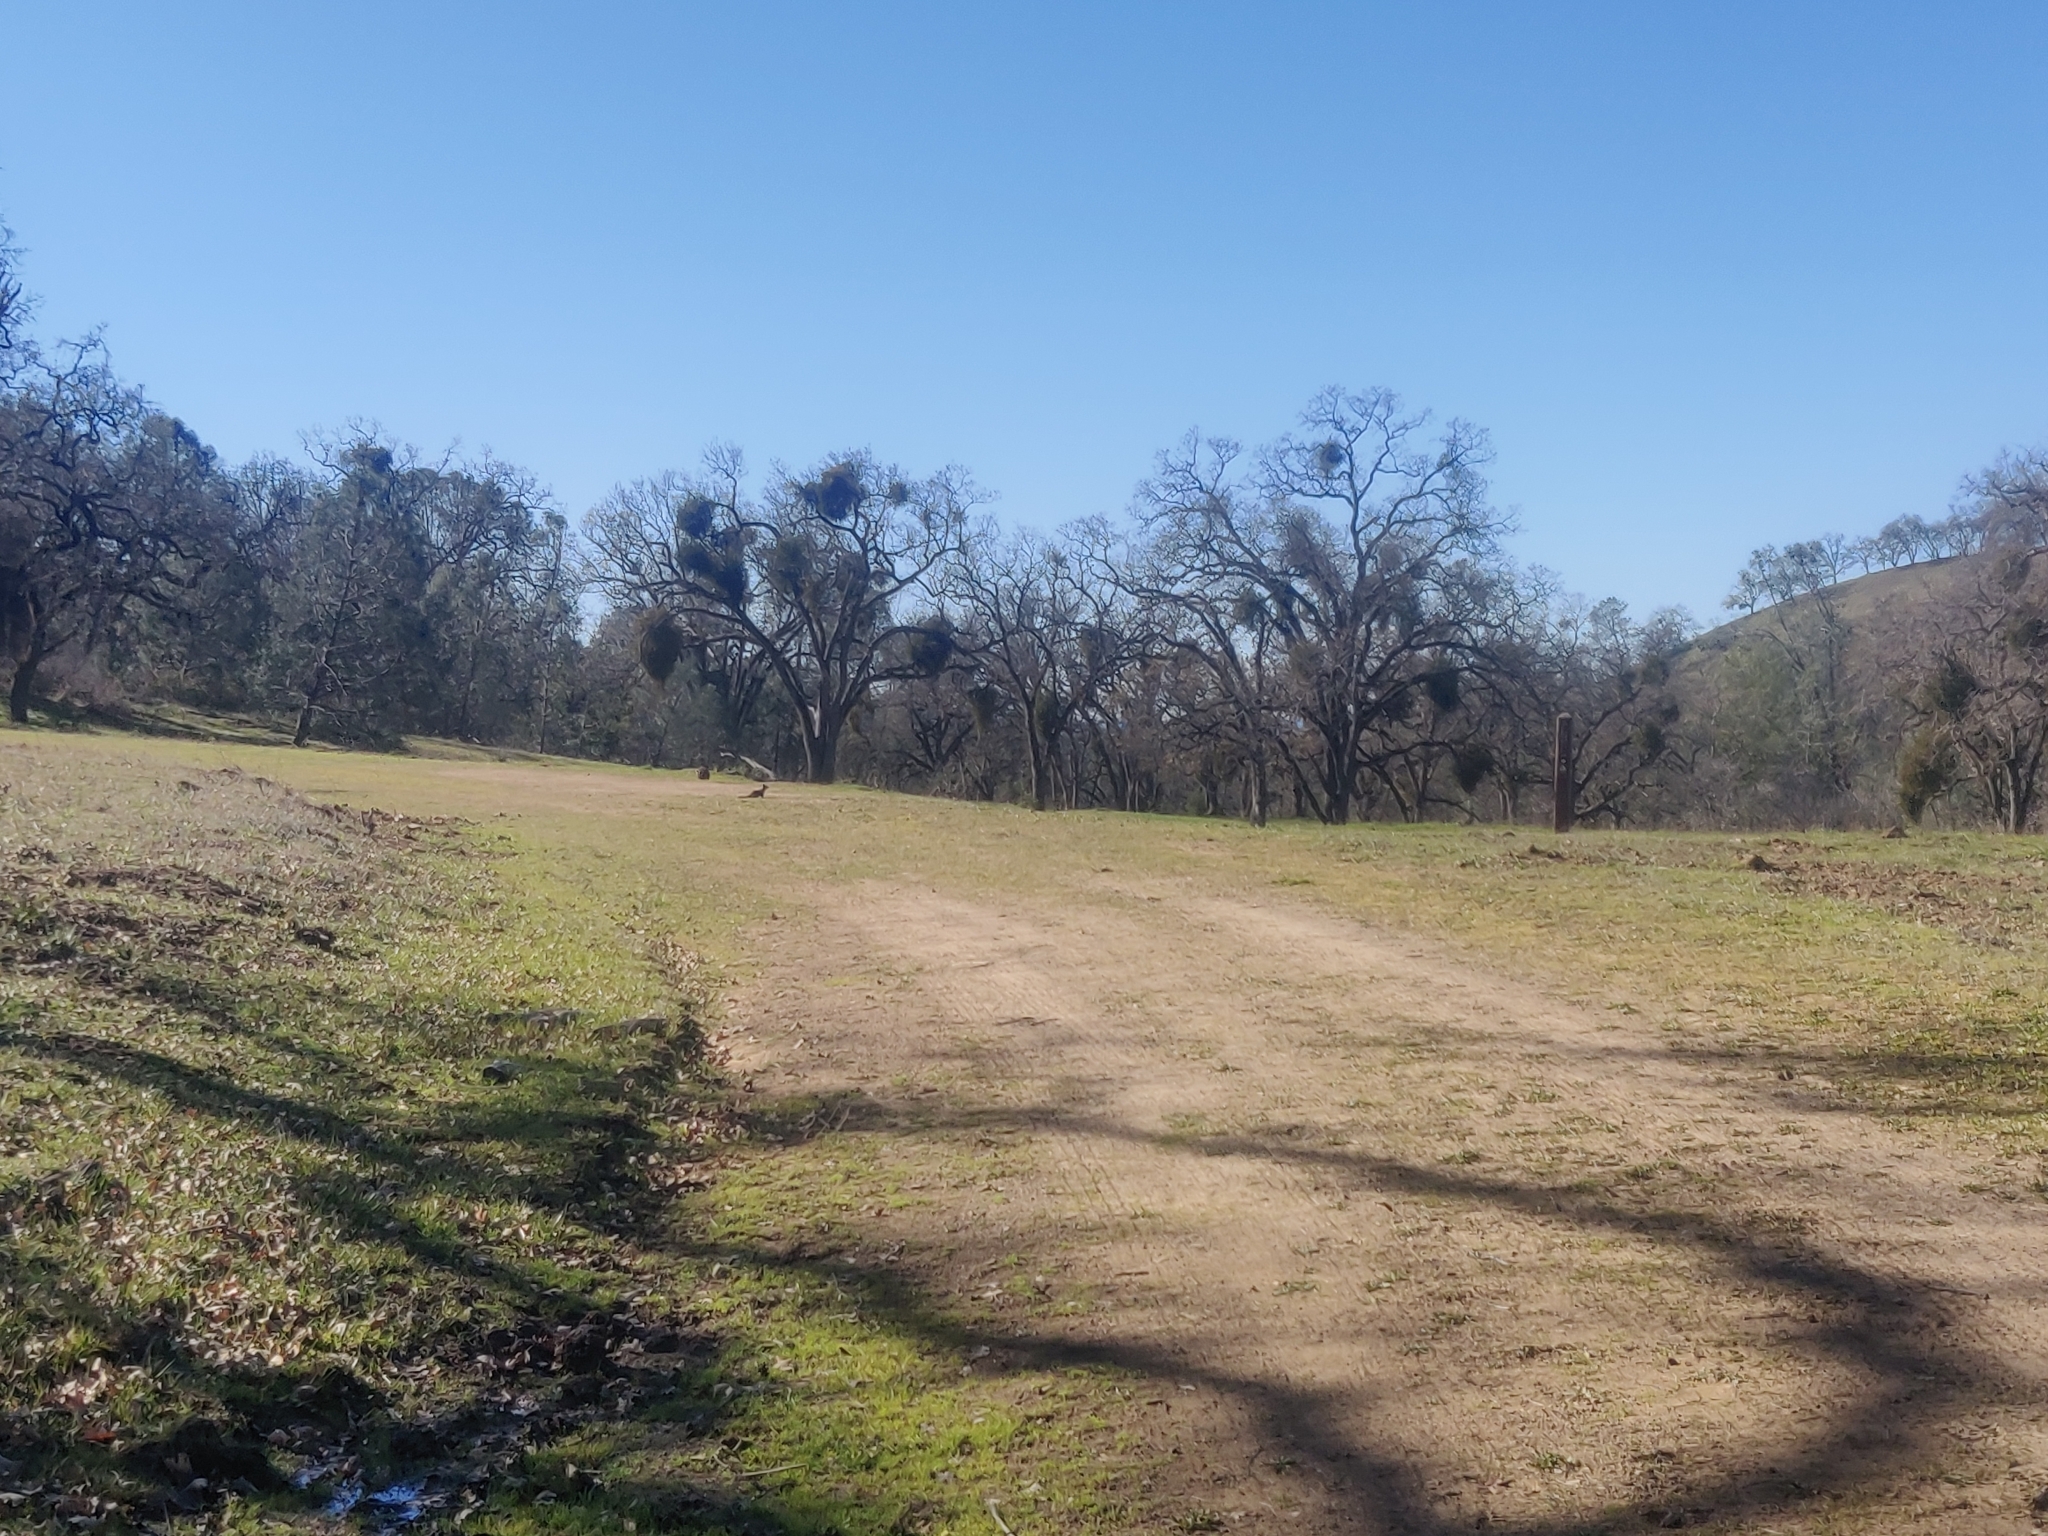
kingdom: Animalia
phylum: Chordata
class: Mammalia
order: Rodentia
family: Sciuridae
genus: Otospermophilus
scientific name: Otospermophilus beecheyi
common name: California ground squirrel
